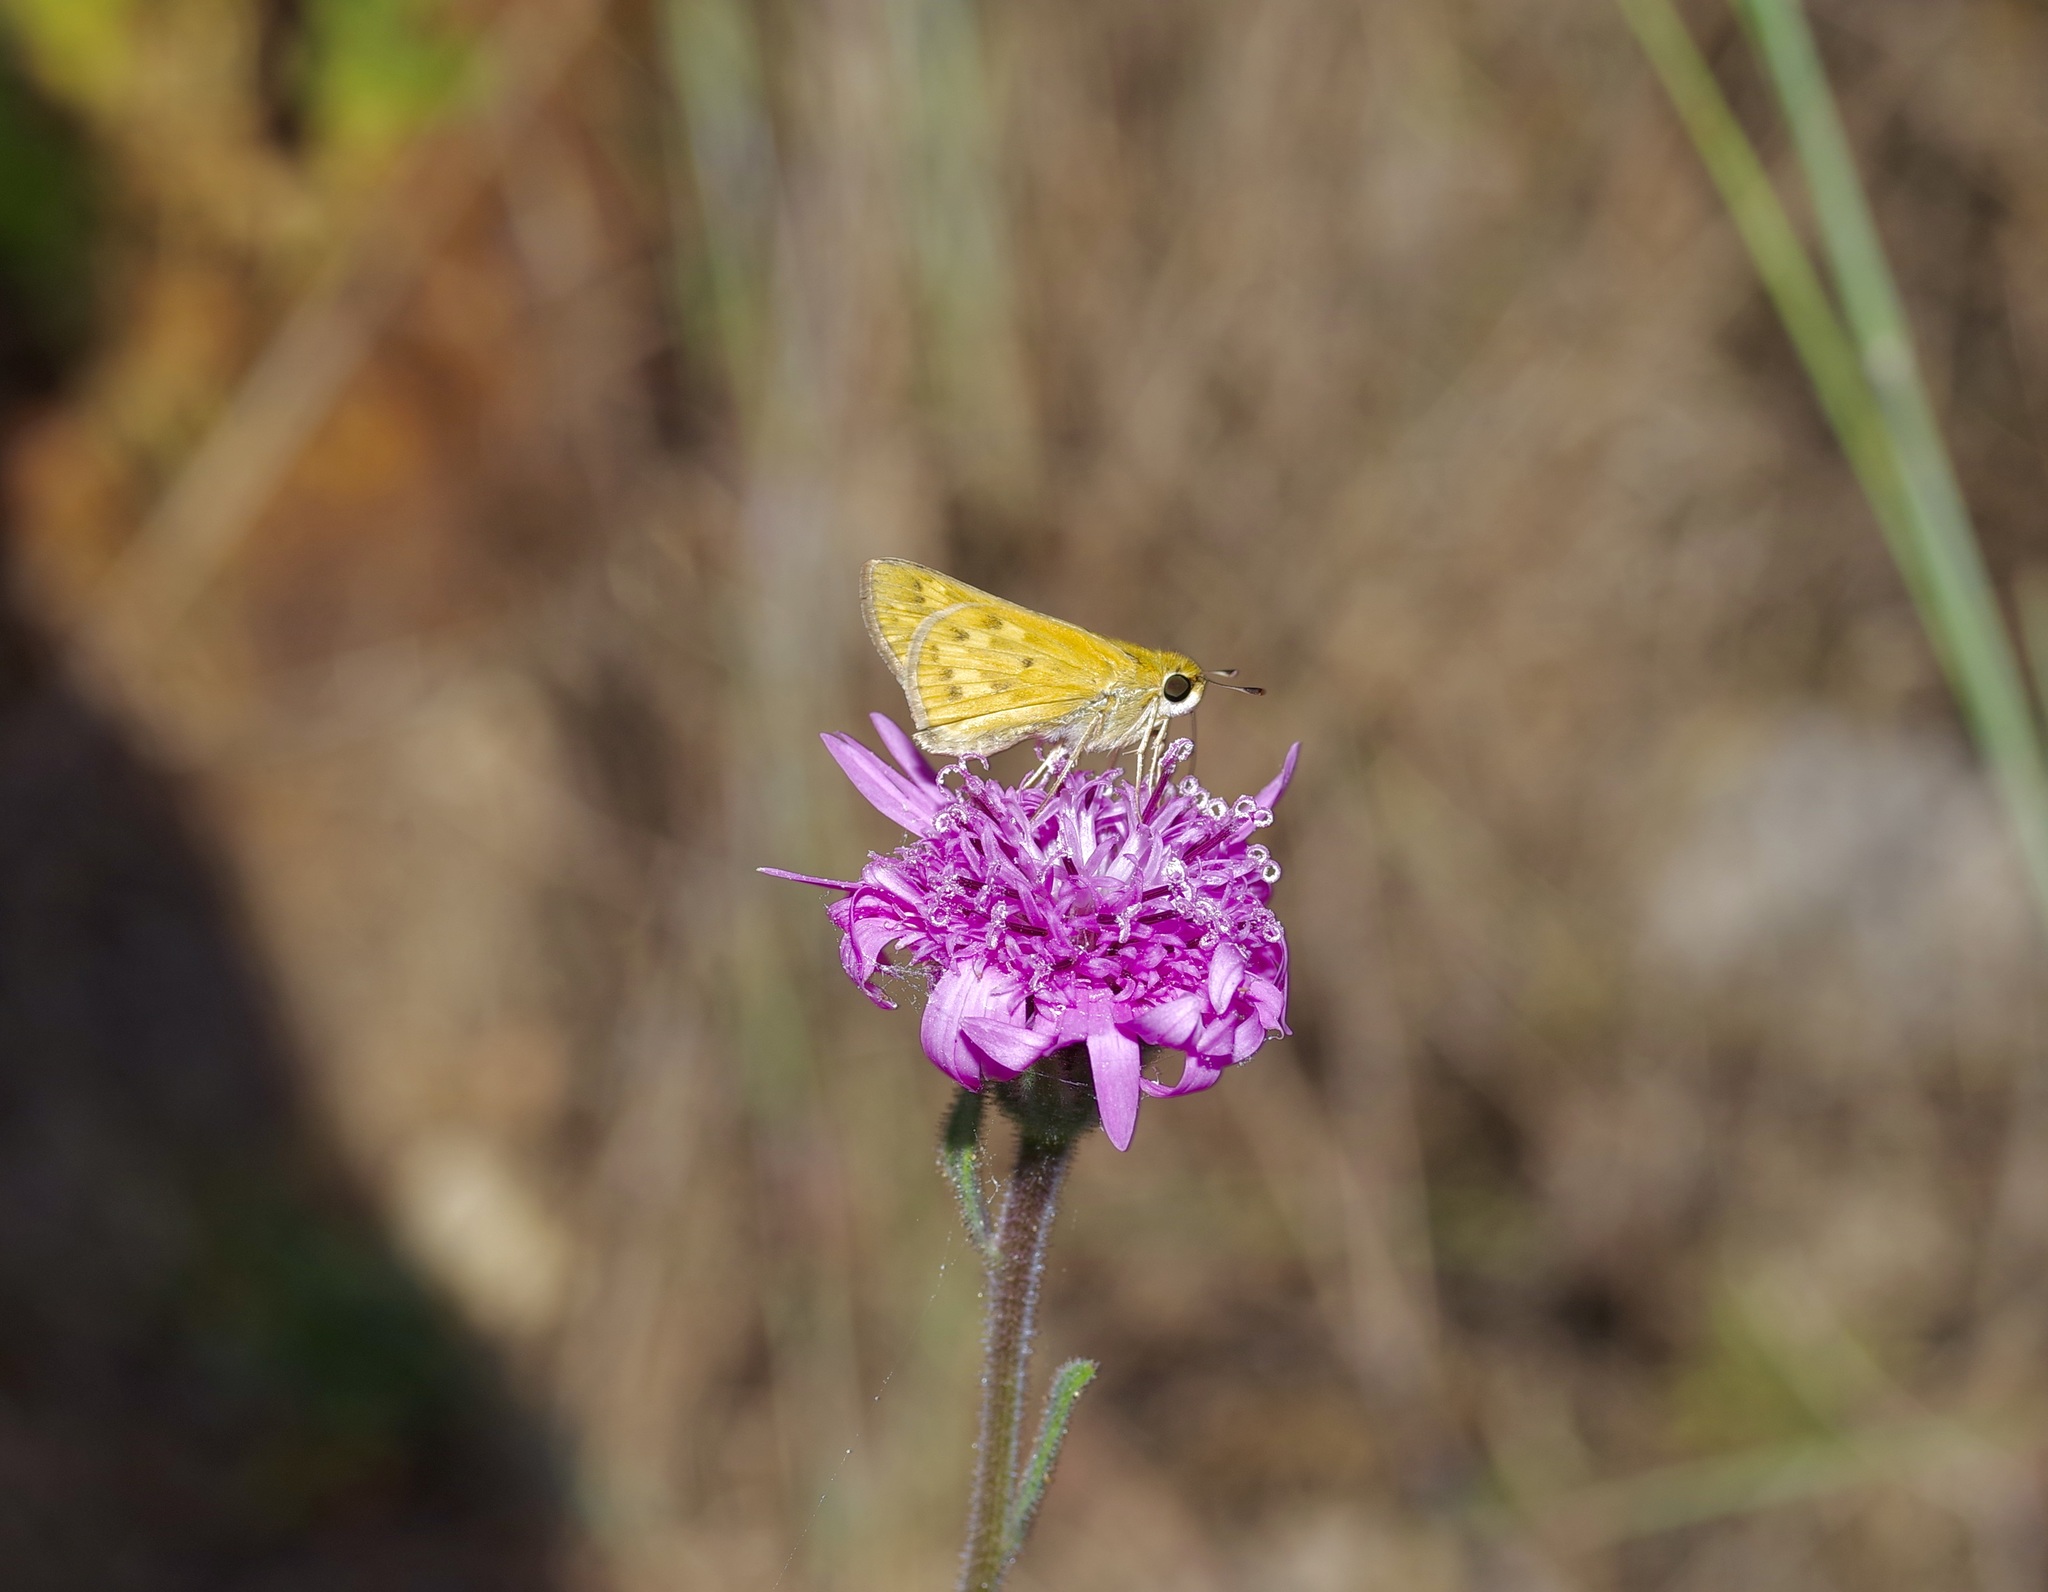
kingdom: Animalia
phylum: Arthropoda
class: Insecta
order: Lepidoptera
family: Hesperiidae
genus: Hylephila
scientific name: Hylephila phyleus
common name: Fiery skipper
